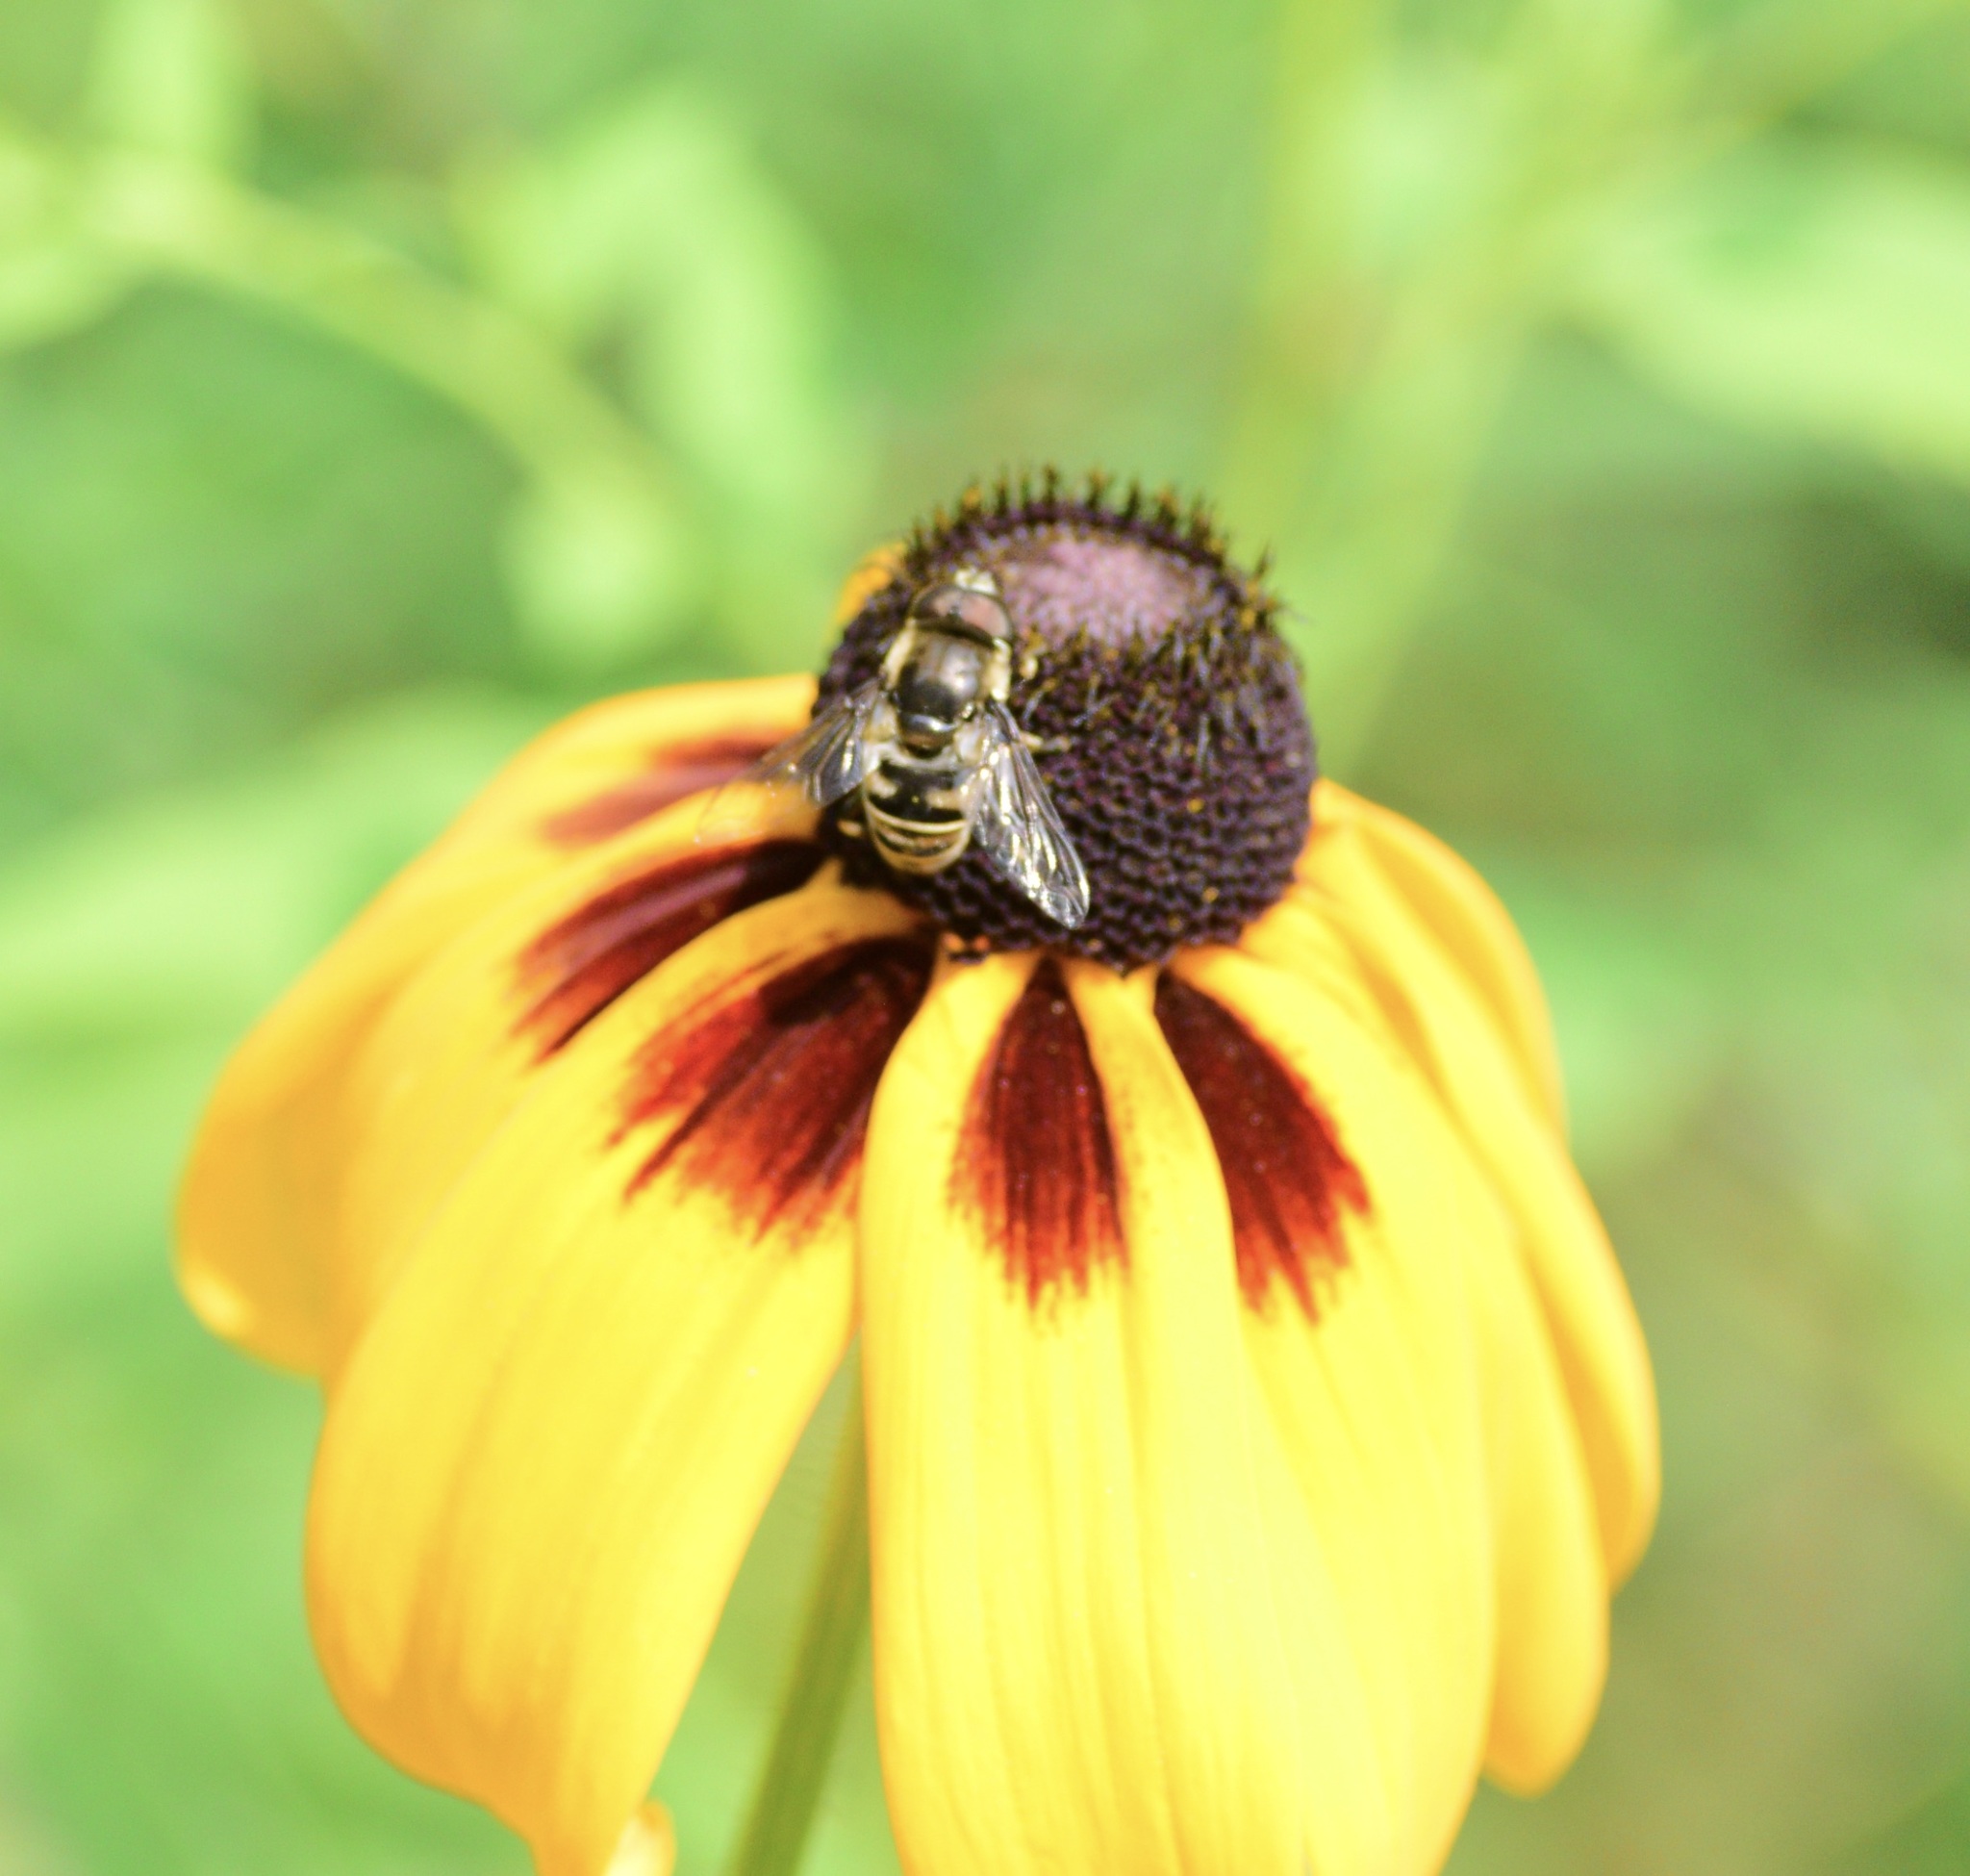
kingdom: Animalia
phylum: Arthropoda
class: Insecta
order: Diptera
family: Syrphidae
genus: Eristalis
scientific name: Eristalis dimidiata
